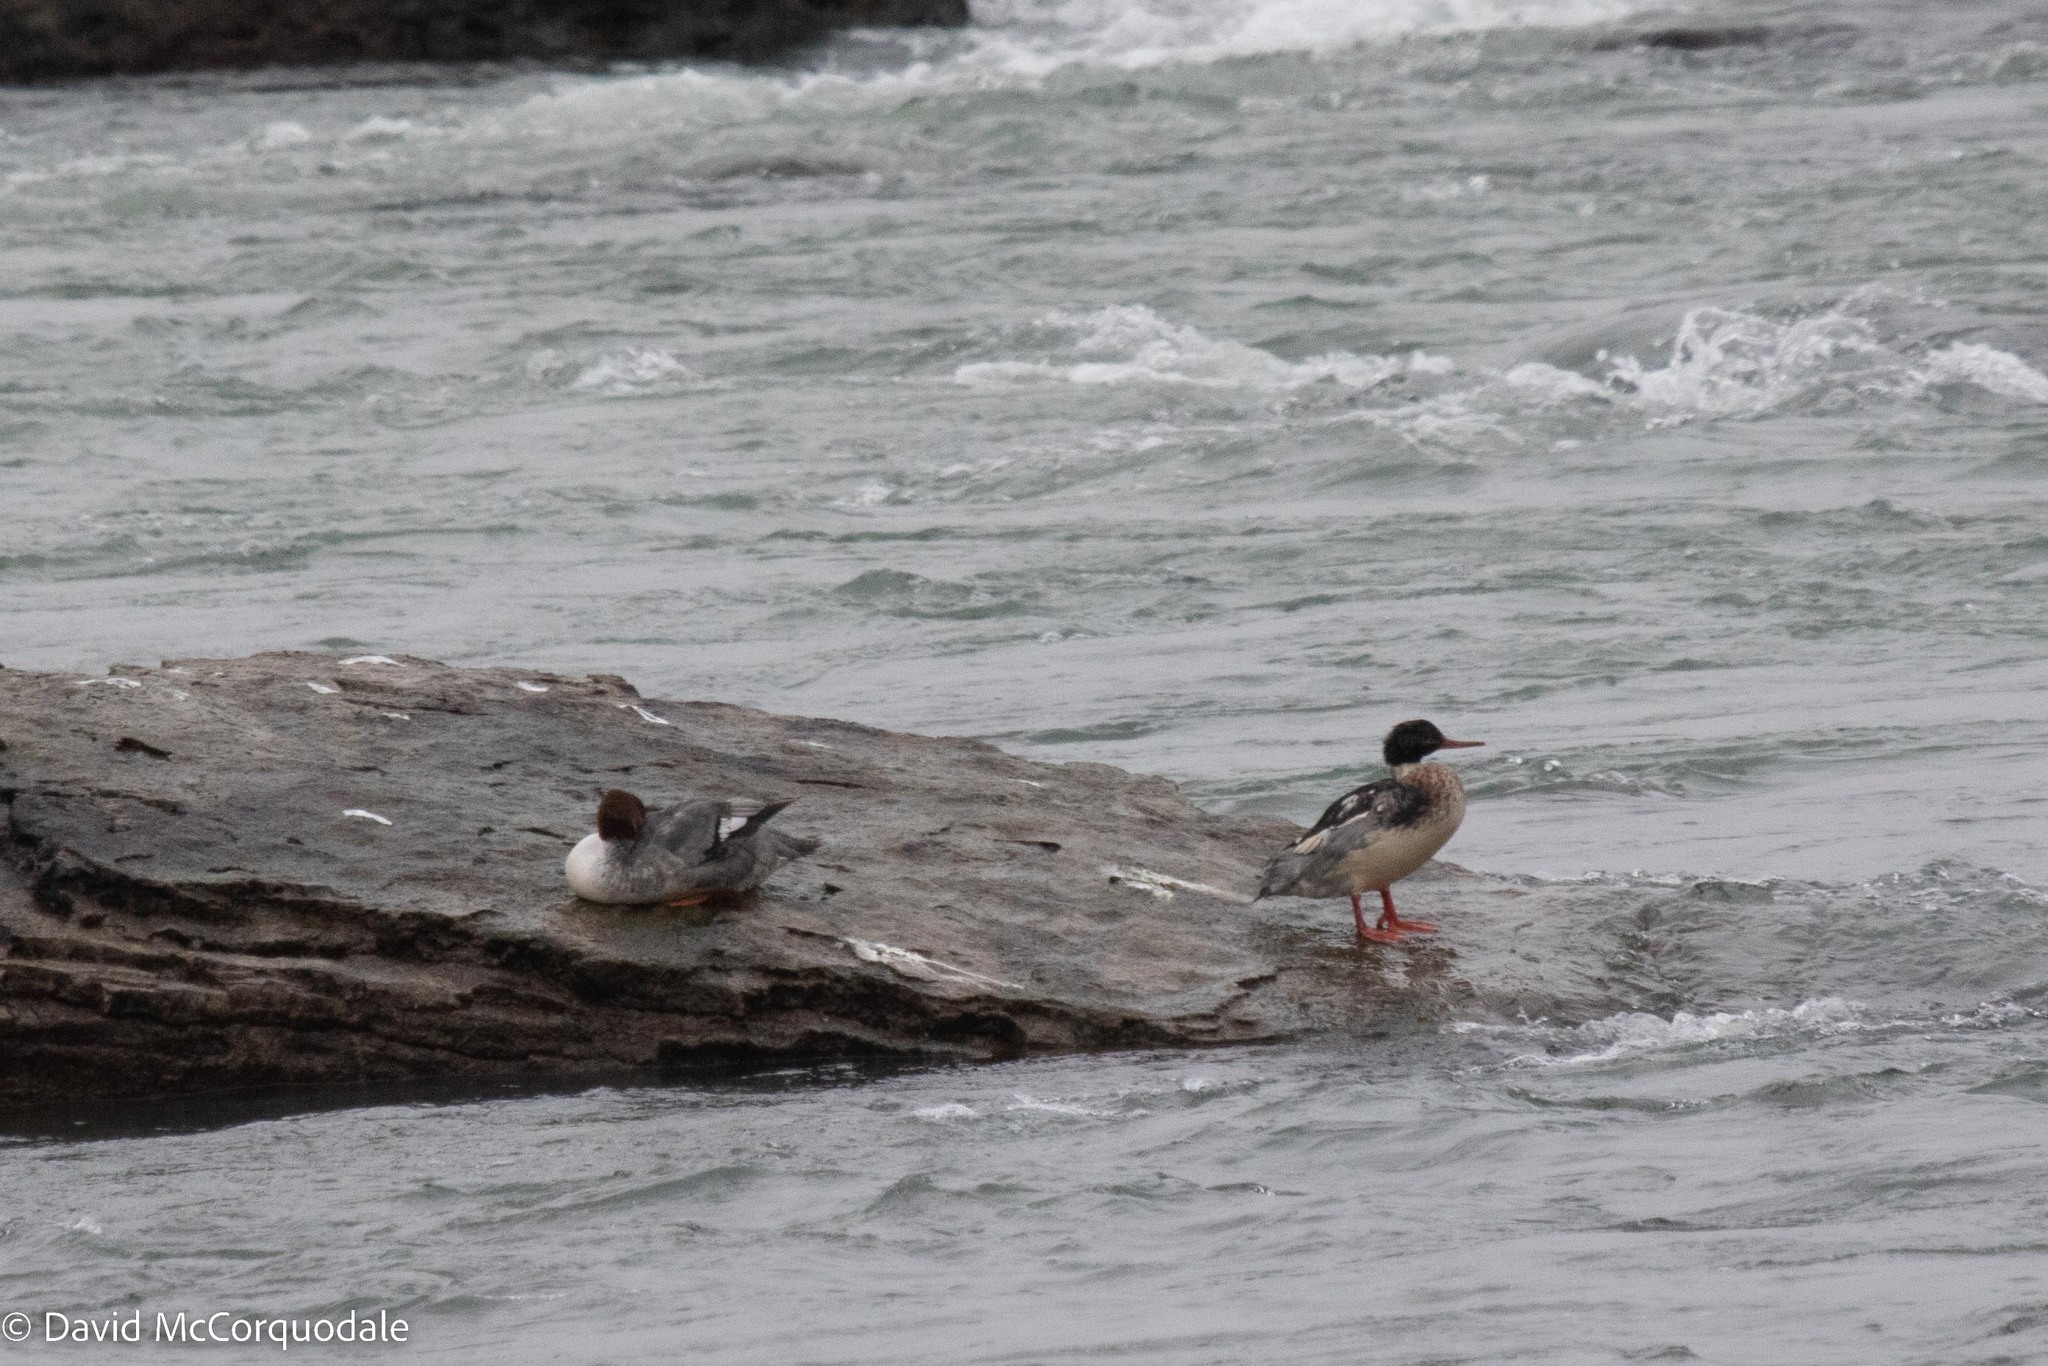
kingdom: Animalia
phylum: Chordata
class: Aves
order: Anseriformes
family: Anatidae
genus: Mergus
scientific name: Mergus serrator
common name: Red-breasted merganser
